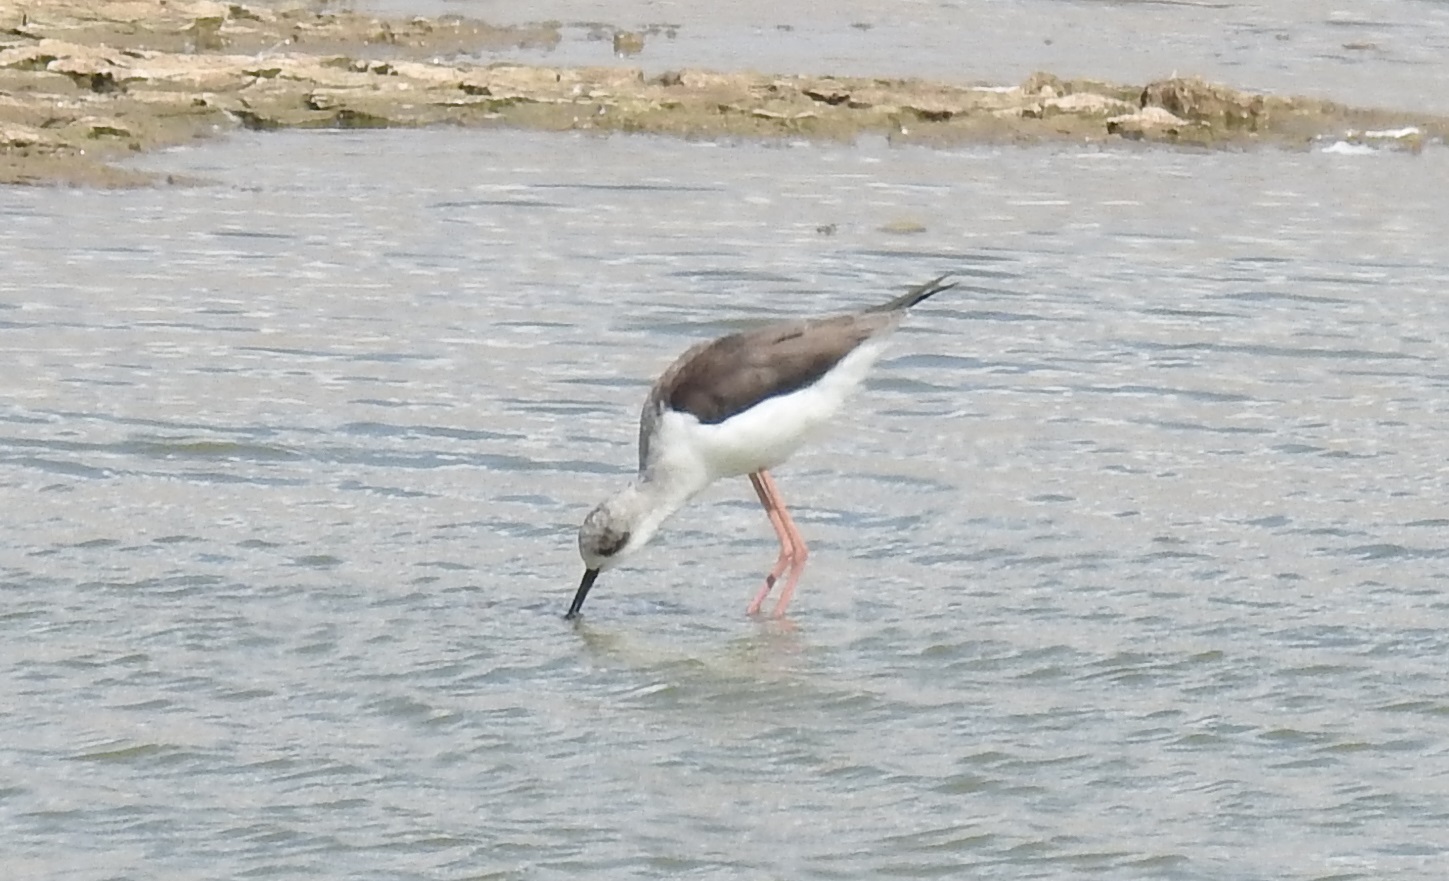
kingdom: Animalia
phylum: Chordata
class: Aves
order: Charadriiformes
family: Recurvirostridae
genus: Himantopus
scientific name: Himantopus himantopus
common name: Black-winged stilt
